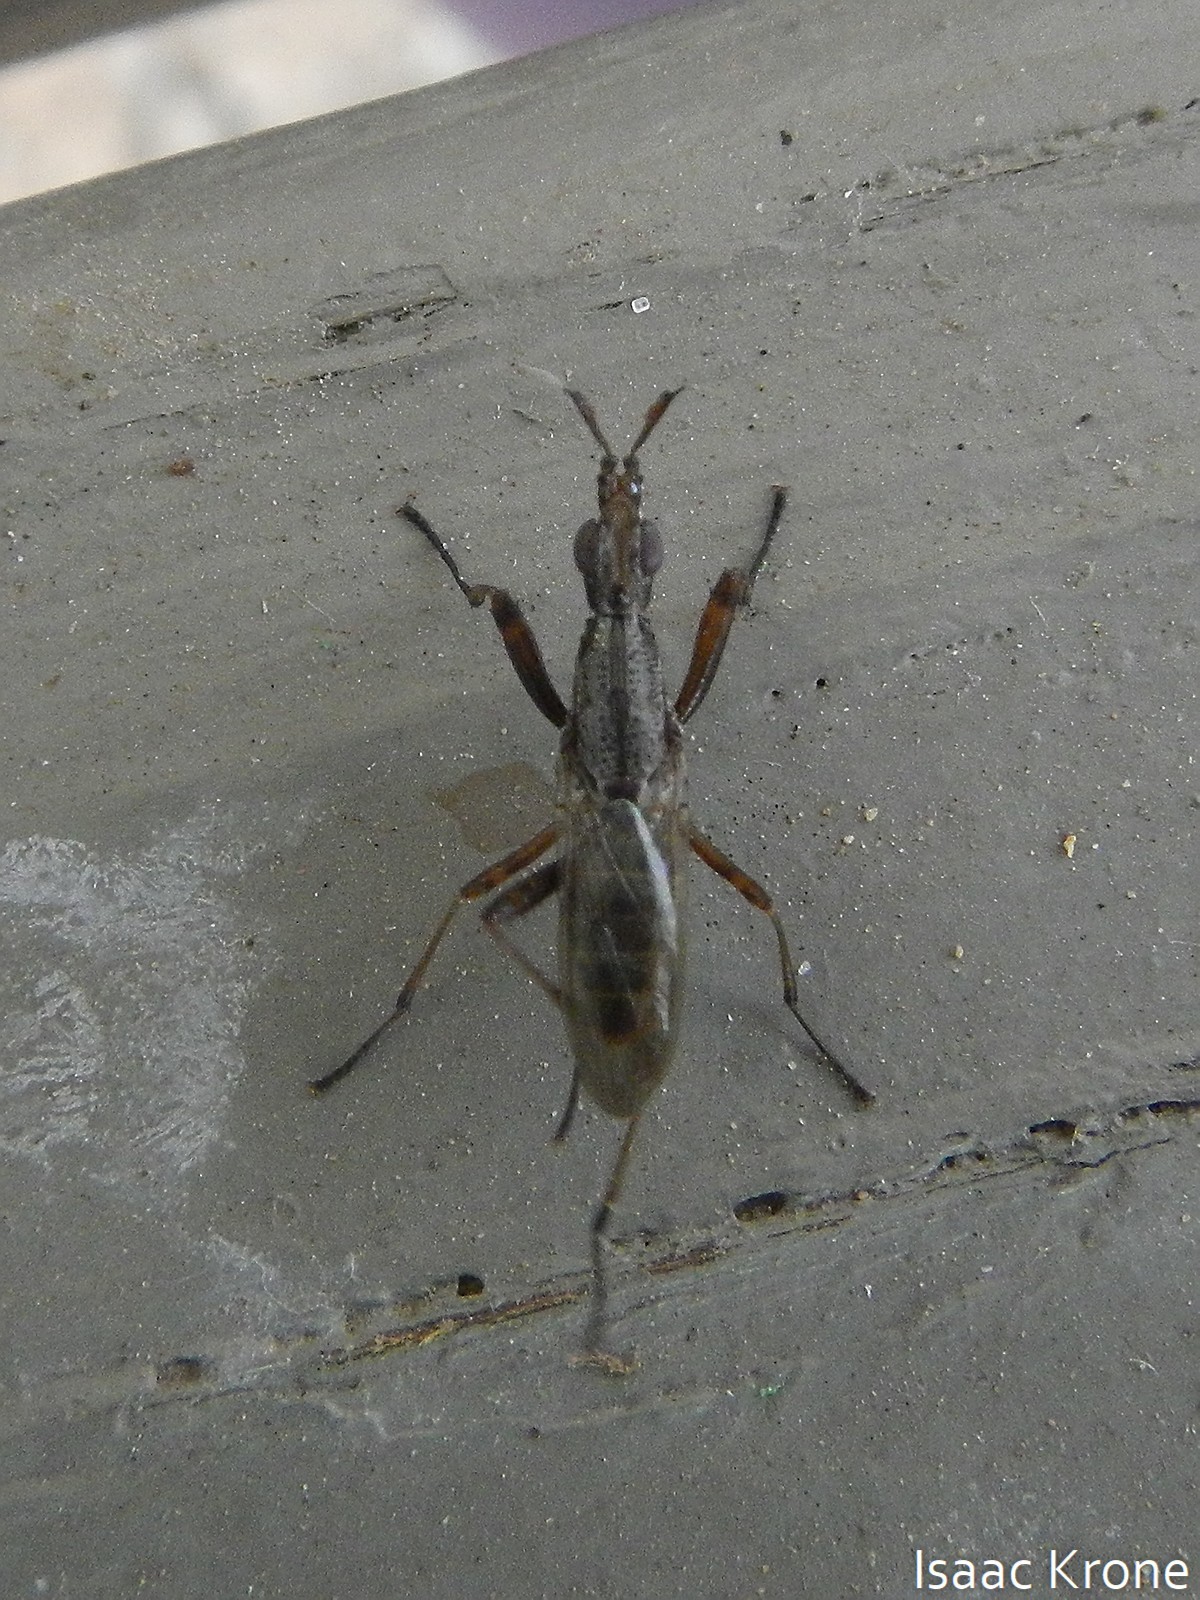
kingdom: Animalia
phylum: Arthropoda
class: Insecta
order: Diptera
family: Neriidae
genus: Odontoloxozus
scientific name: Odontoloxozus longicornis
